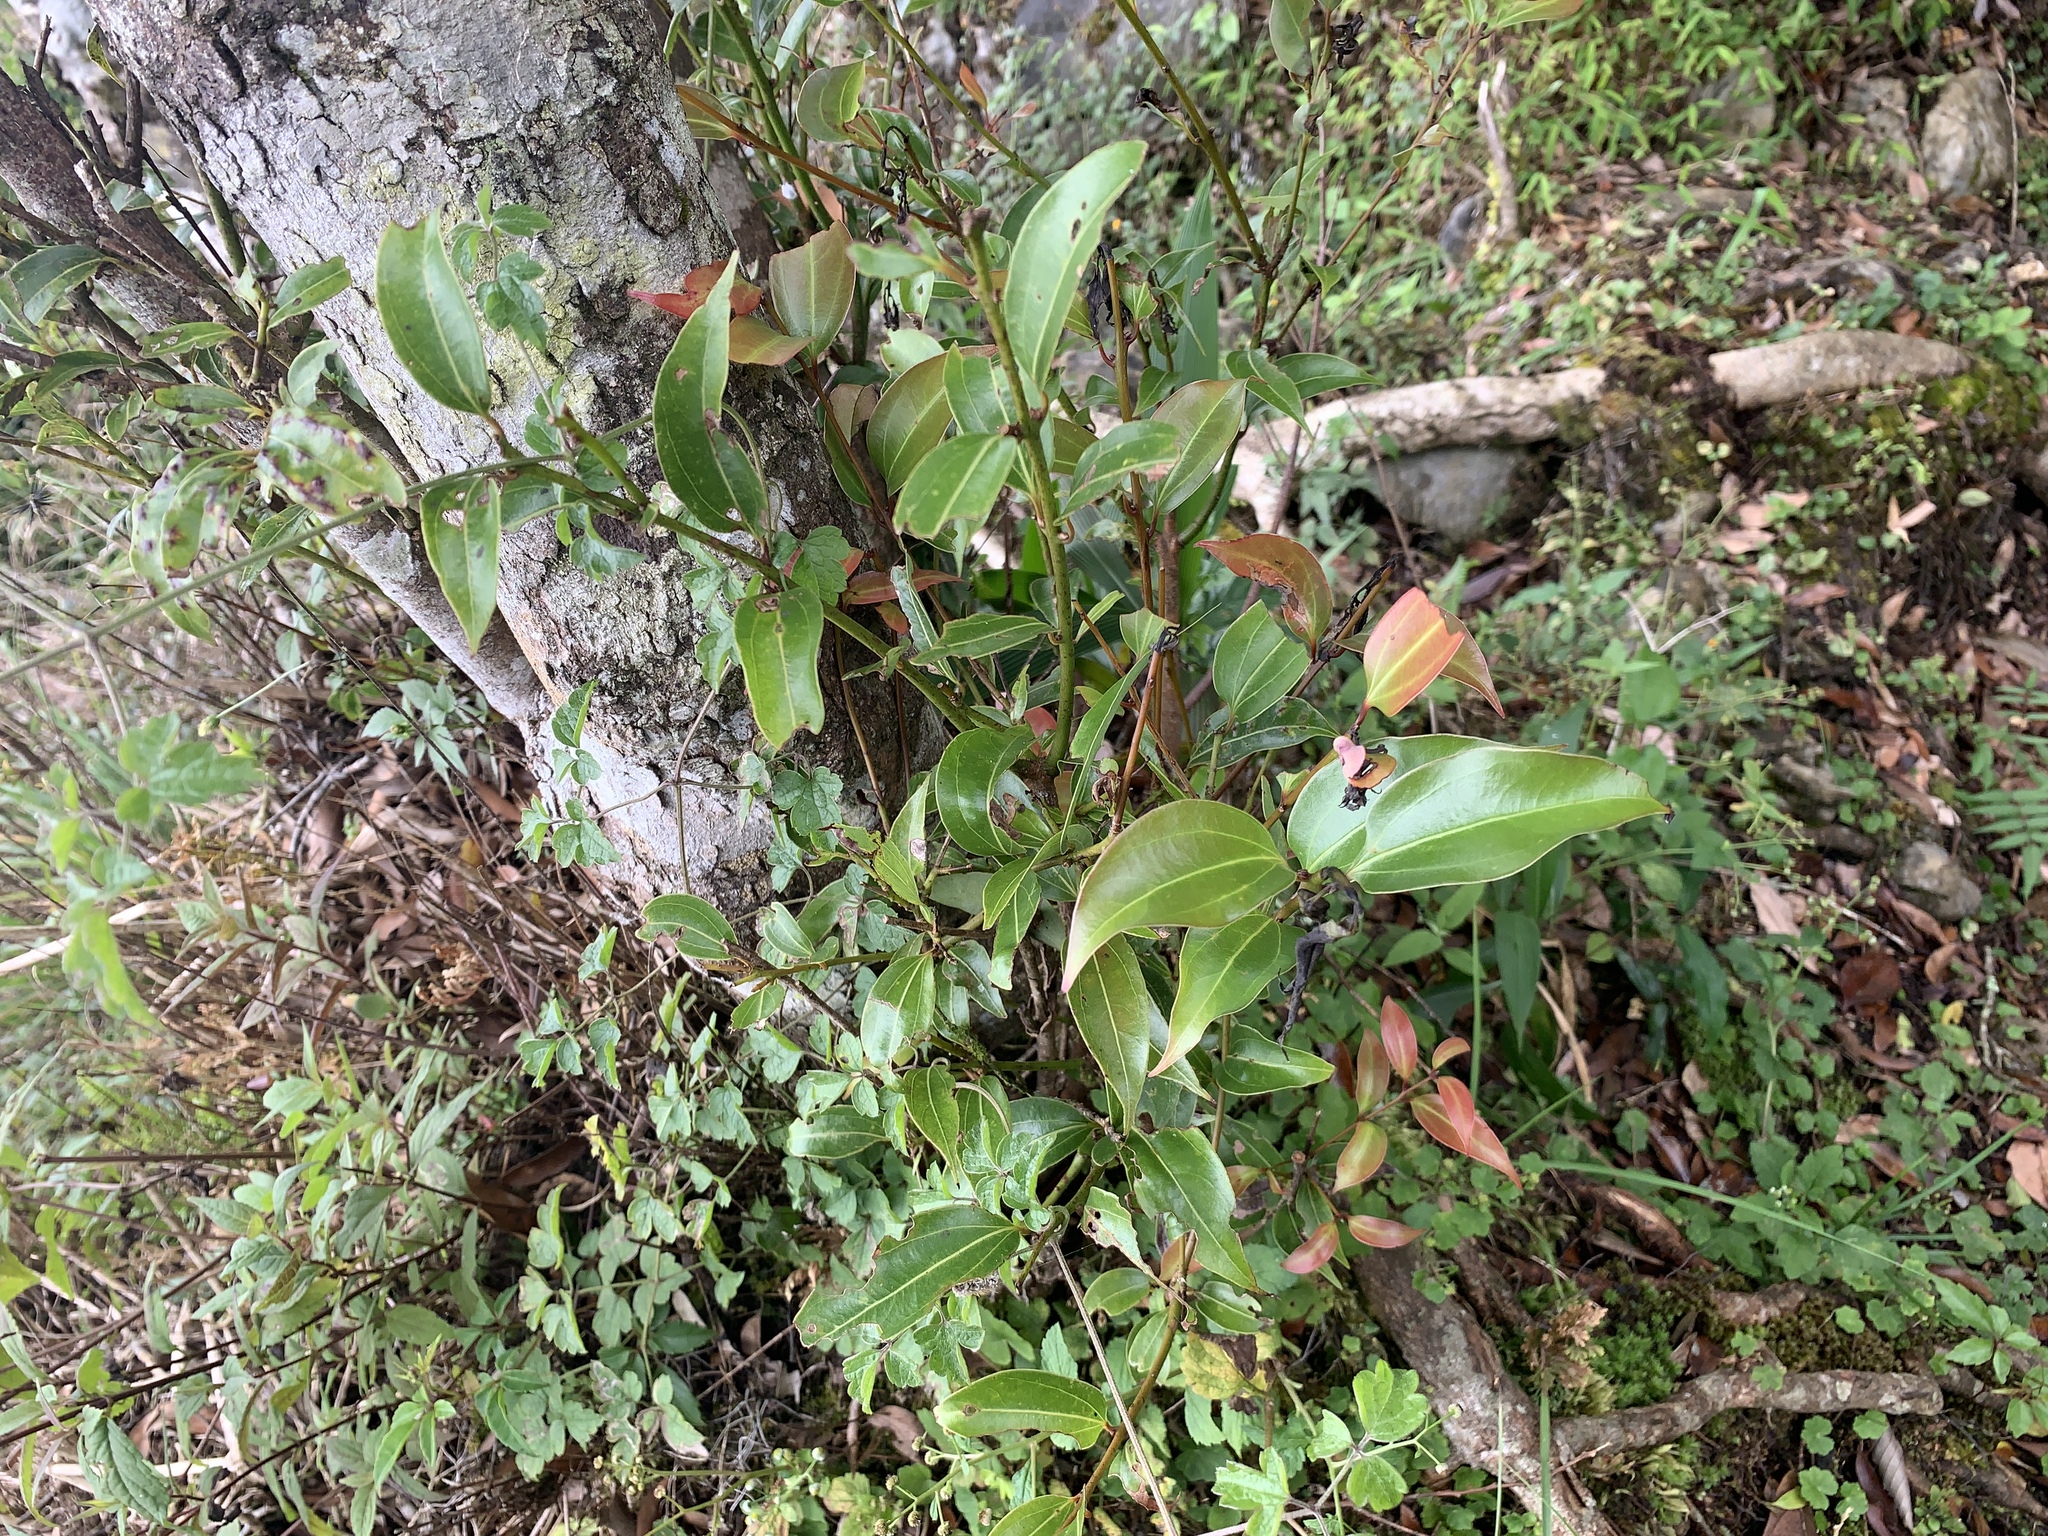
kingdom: Plantae
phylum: Tracheophyta
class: Magnoliopsida
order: Laurales
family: Lauraceae
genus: Cinnamomum
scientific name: Cinnamomum chekiangense
